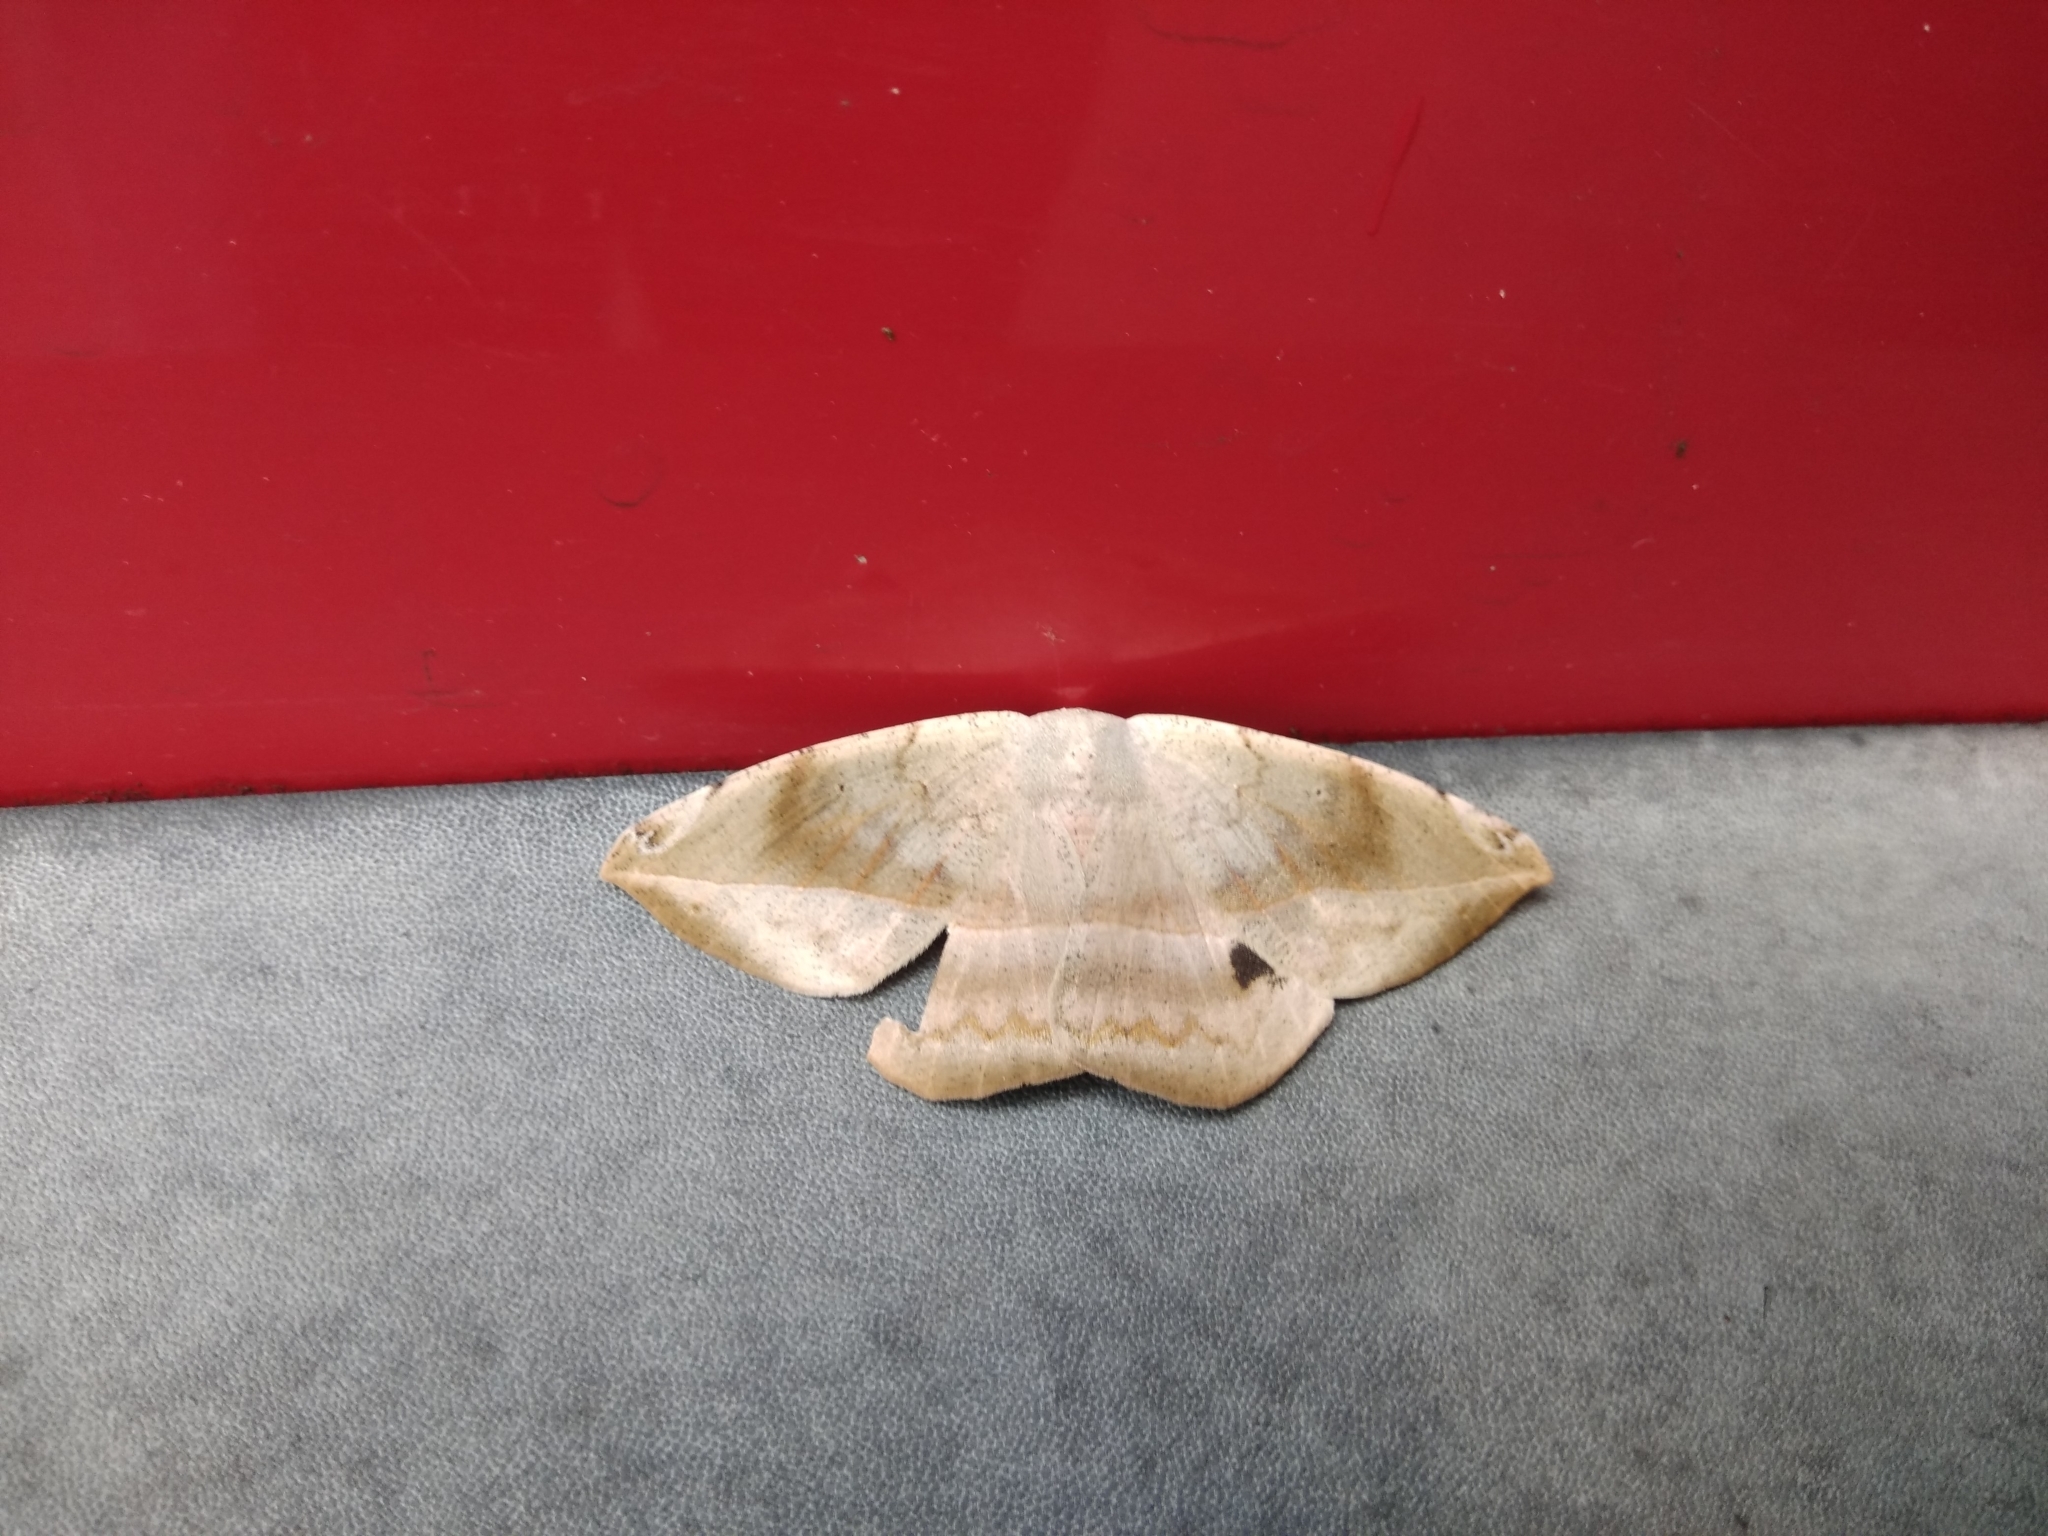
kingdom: Animalia
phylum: Arthropoda
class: Insecta
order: Lepidoptera
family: Geometridae
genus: Oxydia
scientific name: Oxydia vesulia
